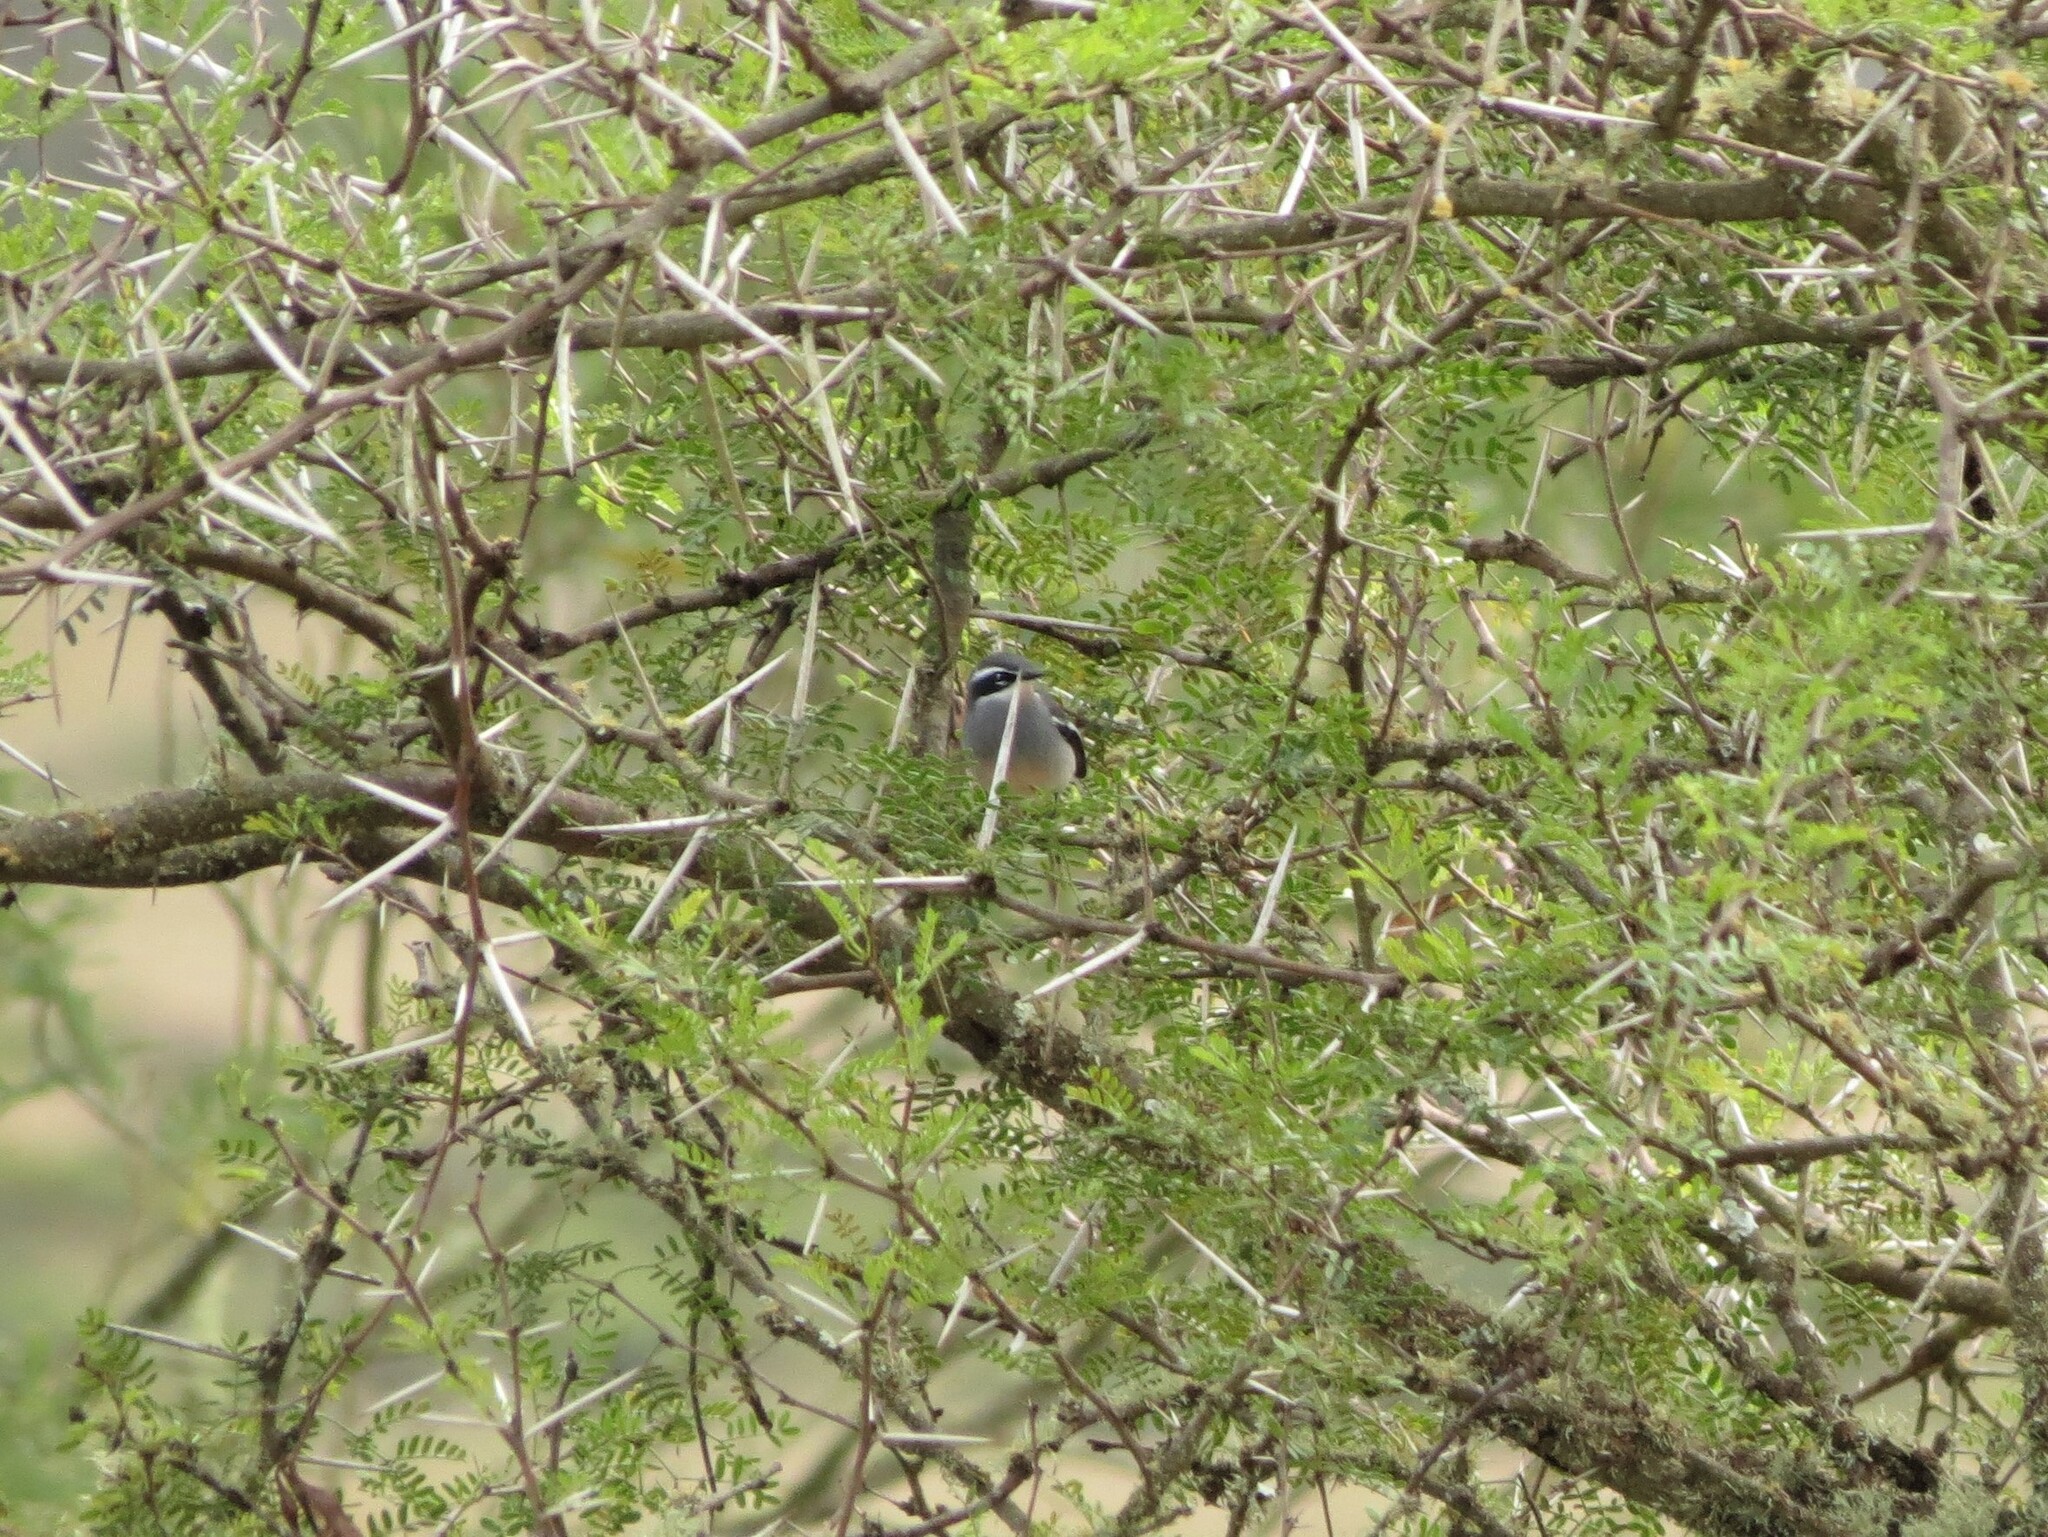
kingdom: Animalia
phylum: Chordata
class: Aves
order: Passeriformes
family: Stenostiridae
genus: Stenostira
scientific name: Stenostira scita
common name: Fairy flycatcher
